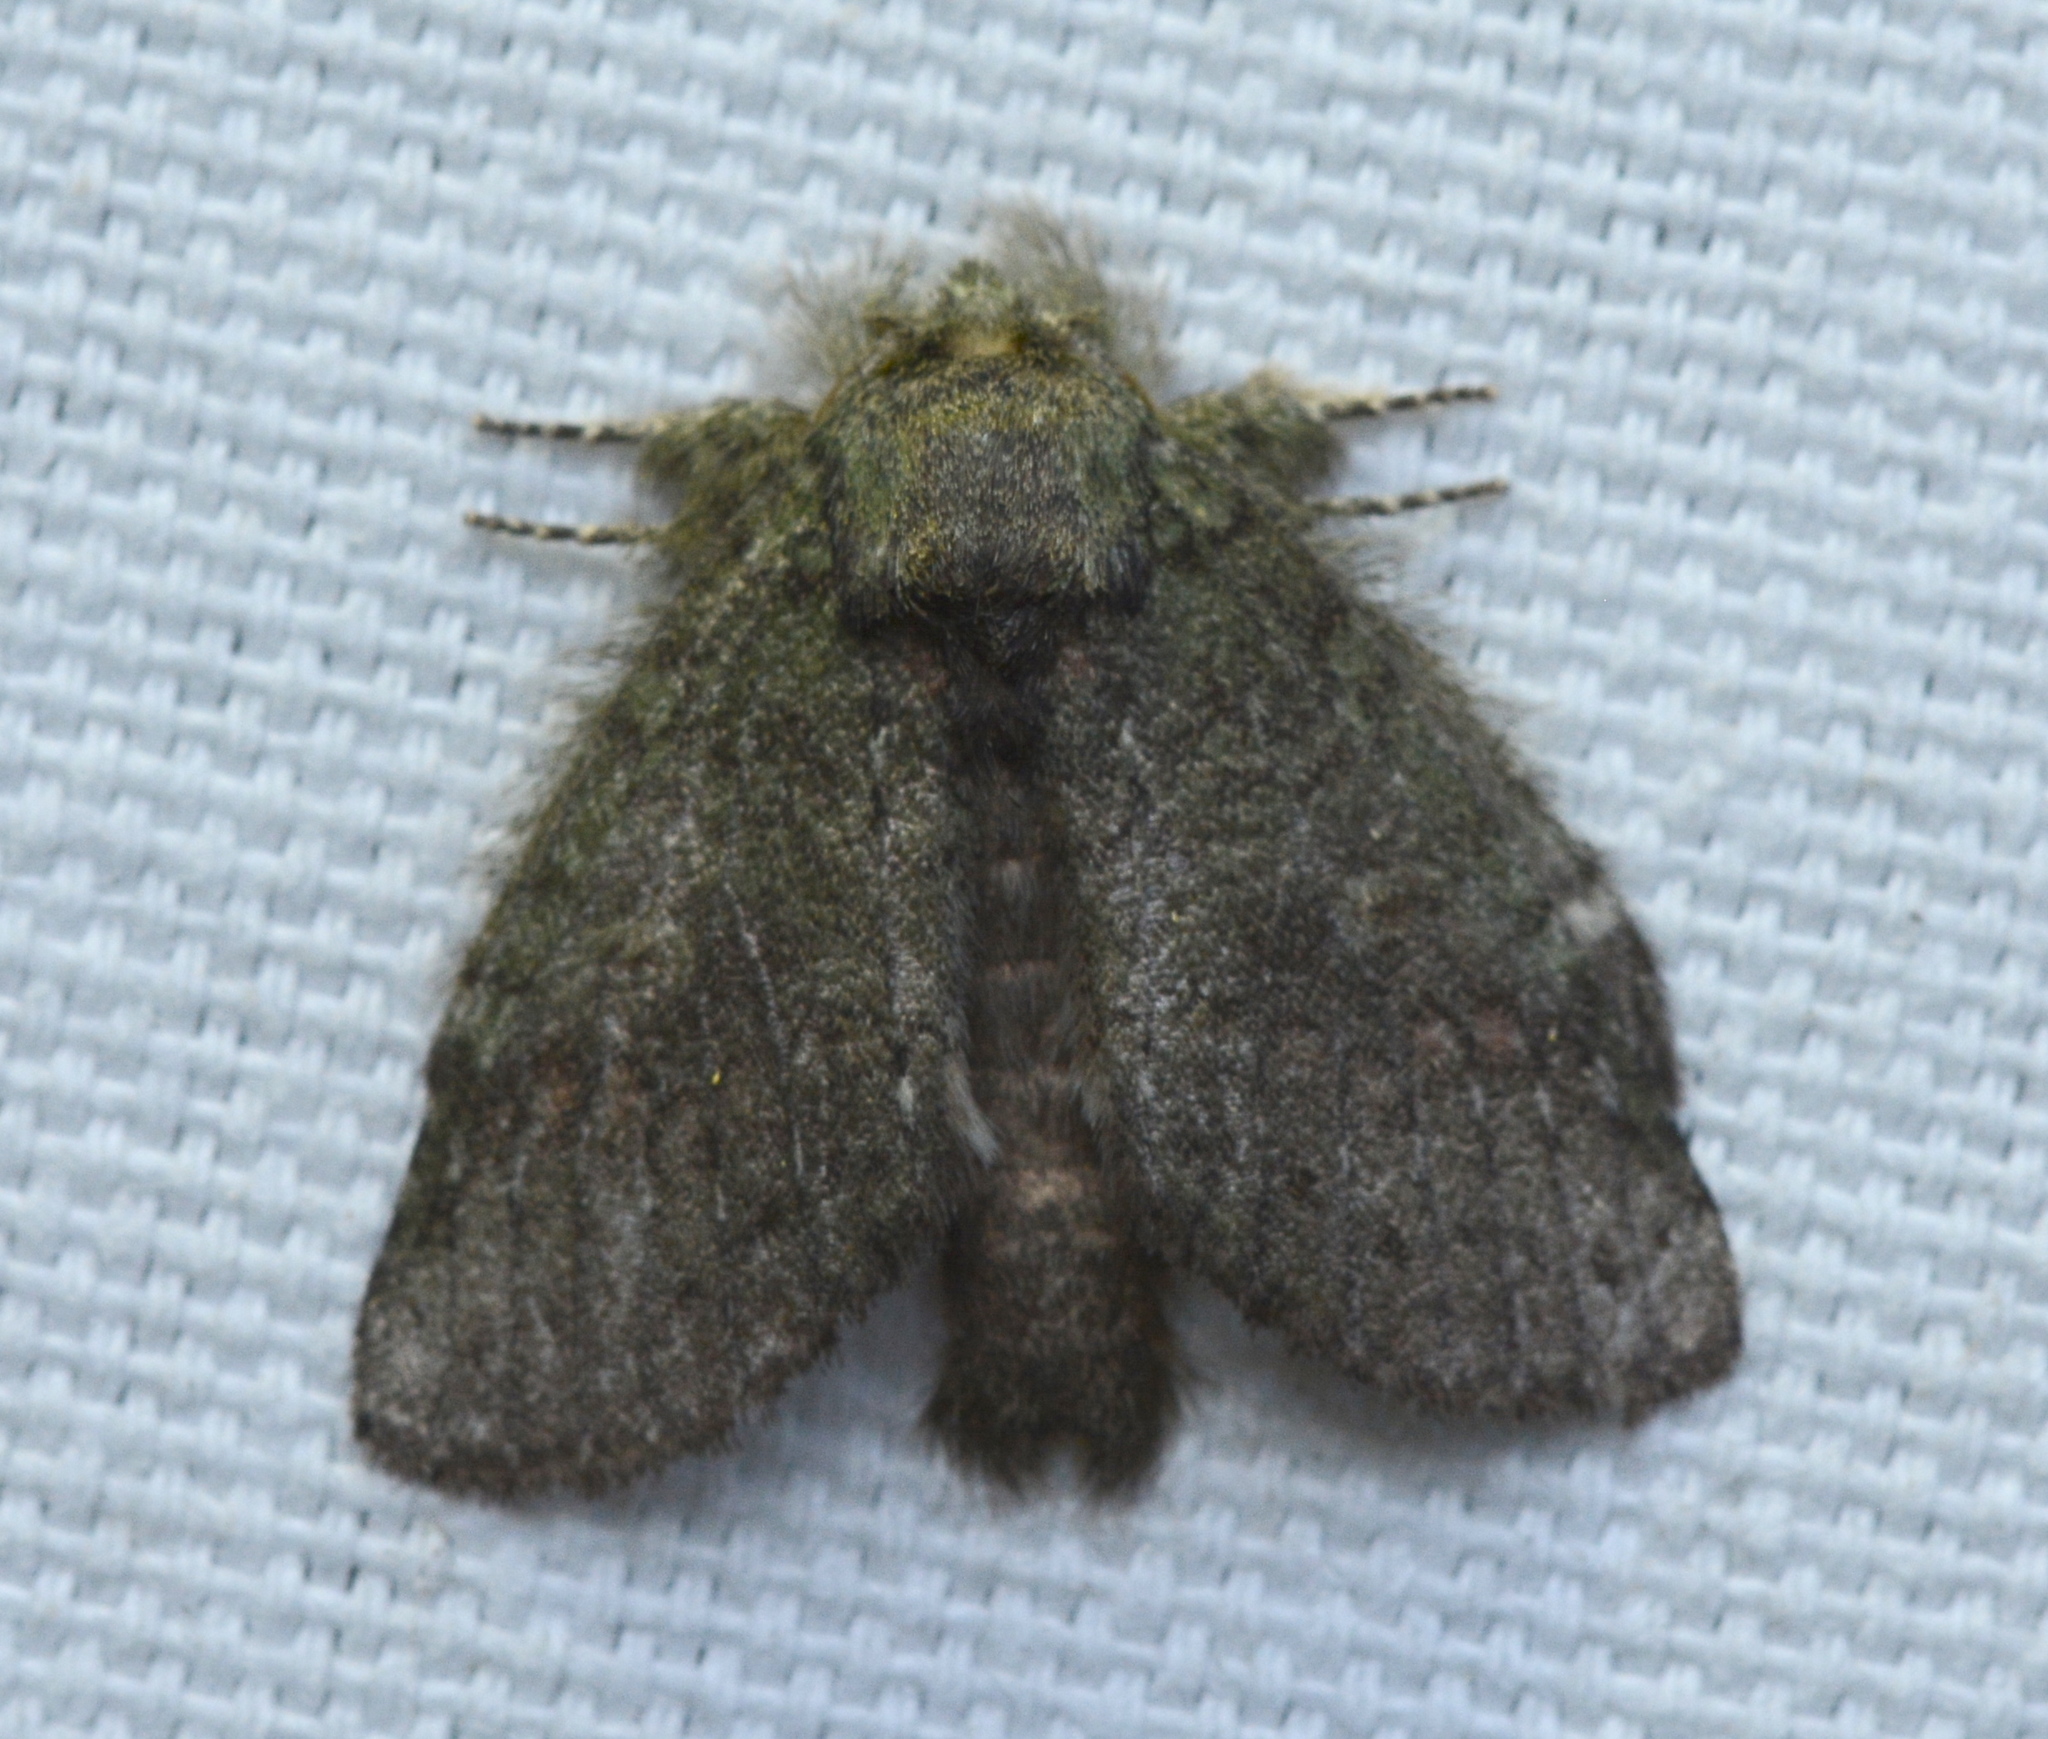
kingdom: Animalia
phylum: Arthropoda
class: Insecta
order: Lepidoptera
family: Notodontidae
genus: Disphragis
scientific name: Disphragis Cecrita guttivitta
